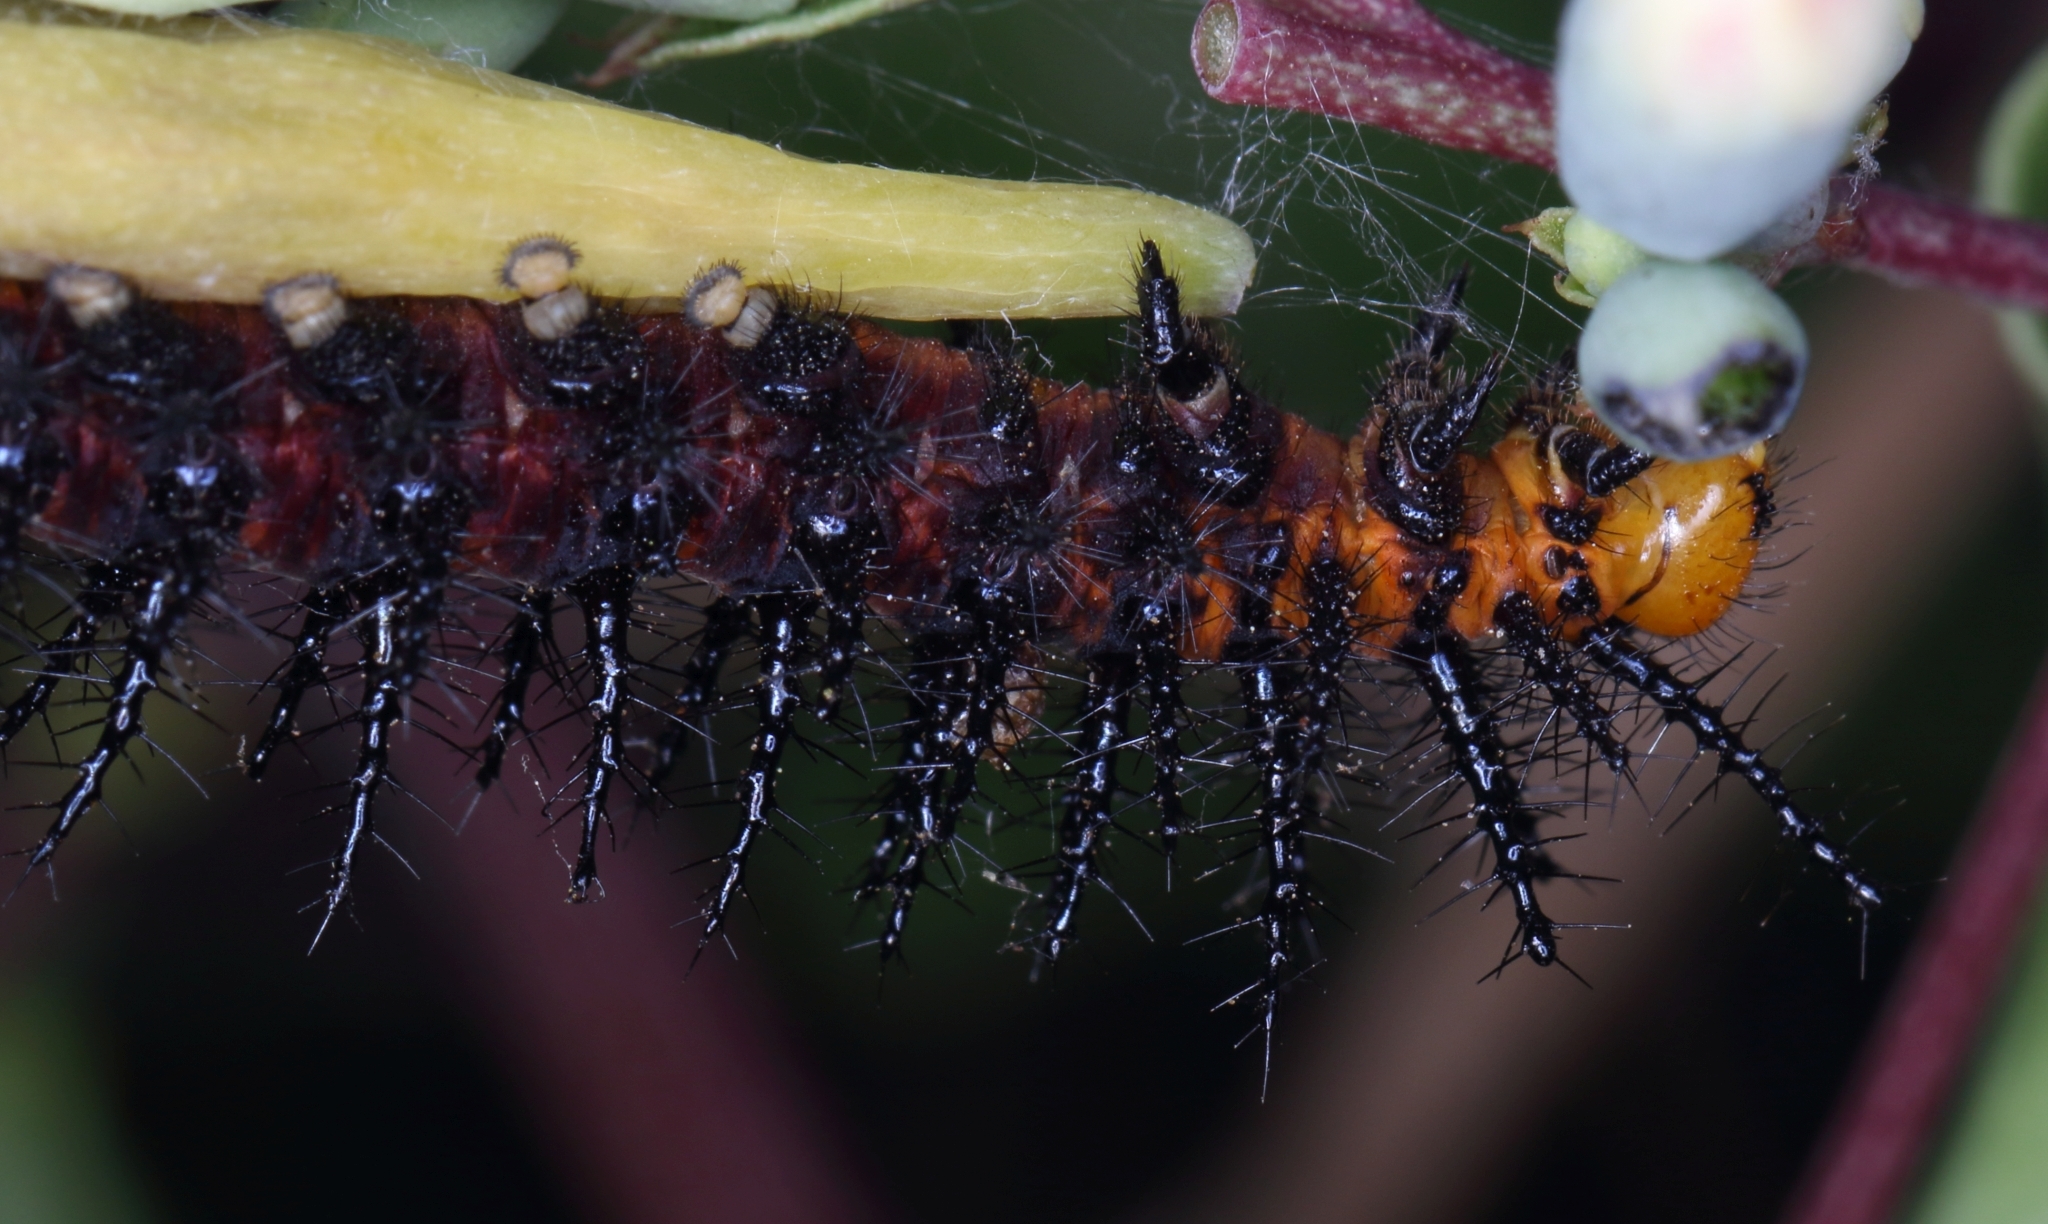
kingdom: Animalia
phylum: Arthropoda
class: Insecta
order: Lepidoptera
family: Nymphalidae
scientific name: Nymphalidae
